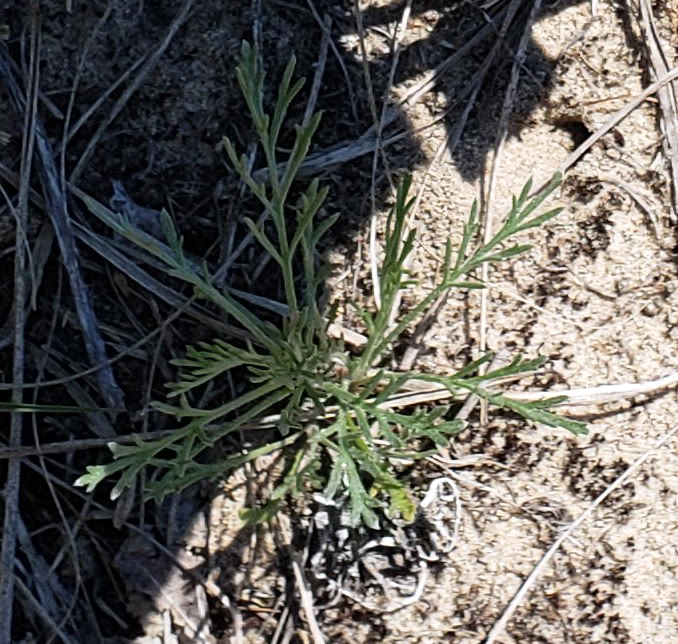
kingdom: Plantae
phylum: Tracheophyta
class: Magnoliopsida
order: Asterales
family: Asteraceae
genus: Artemisia
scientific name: Artemisia campestris
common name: Field wormwood
